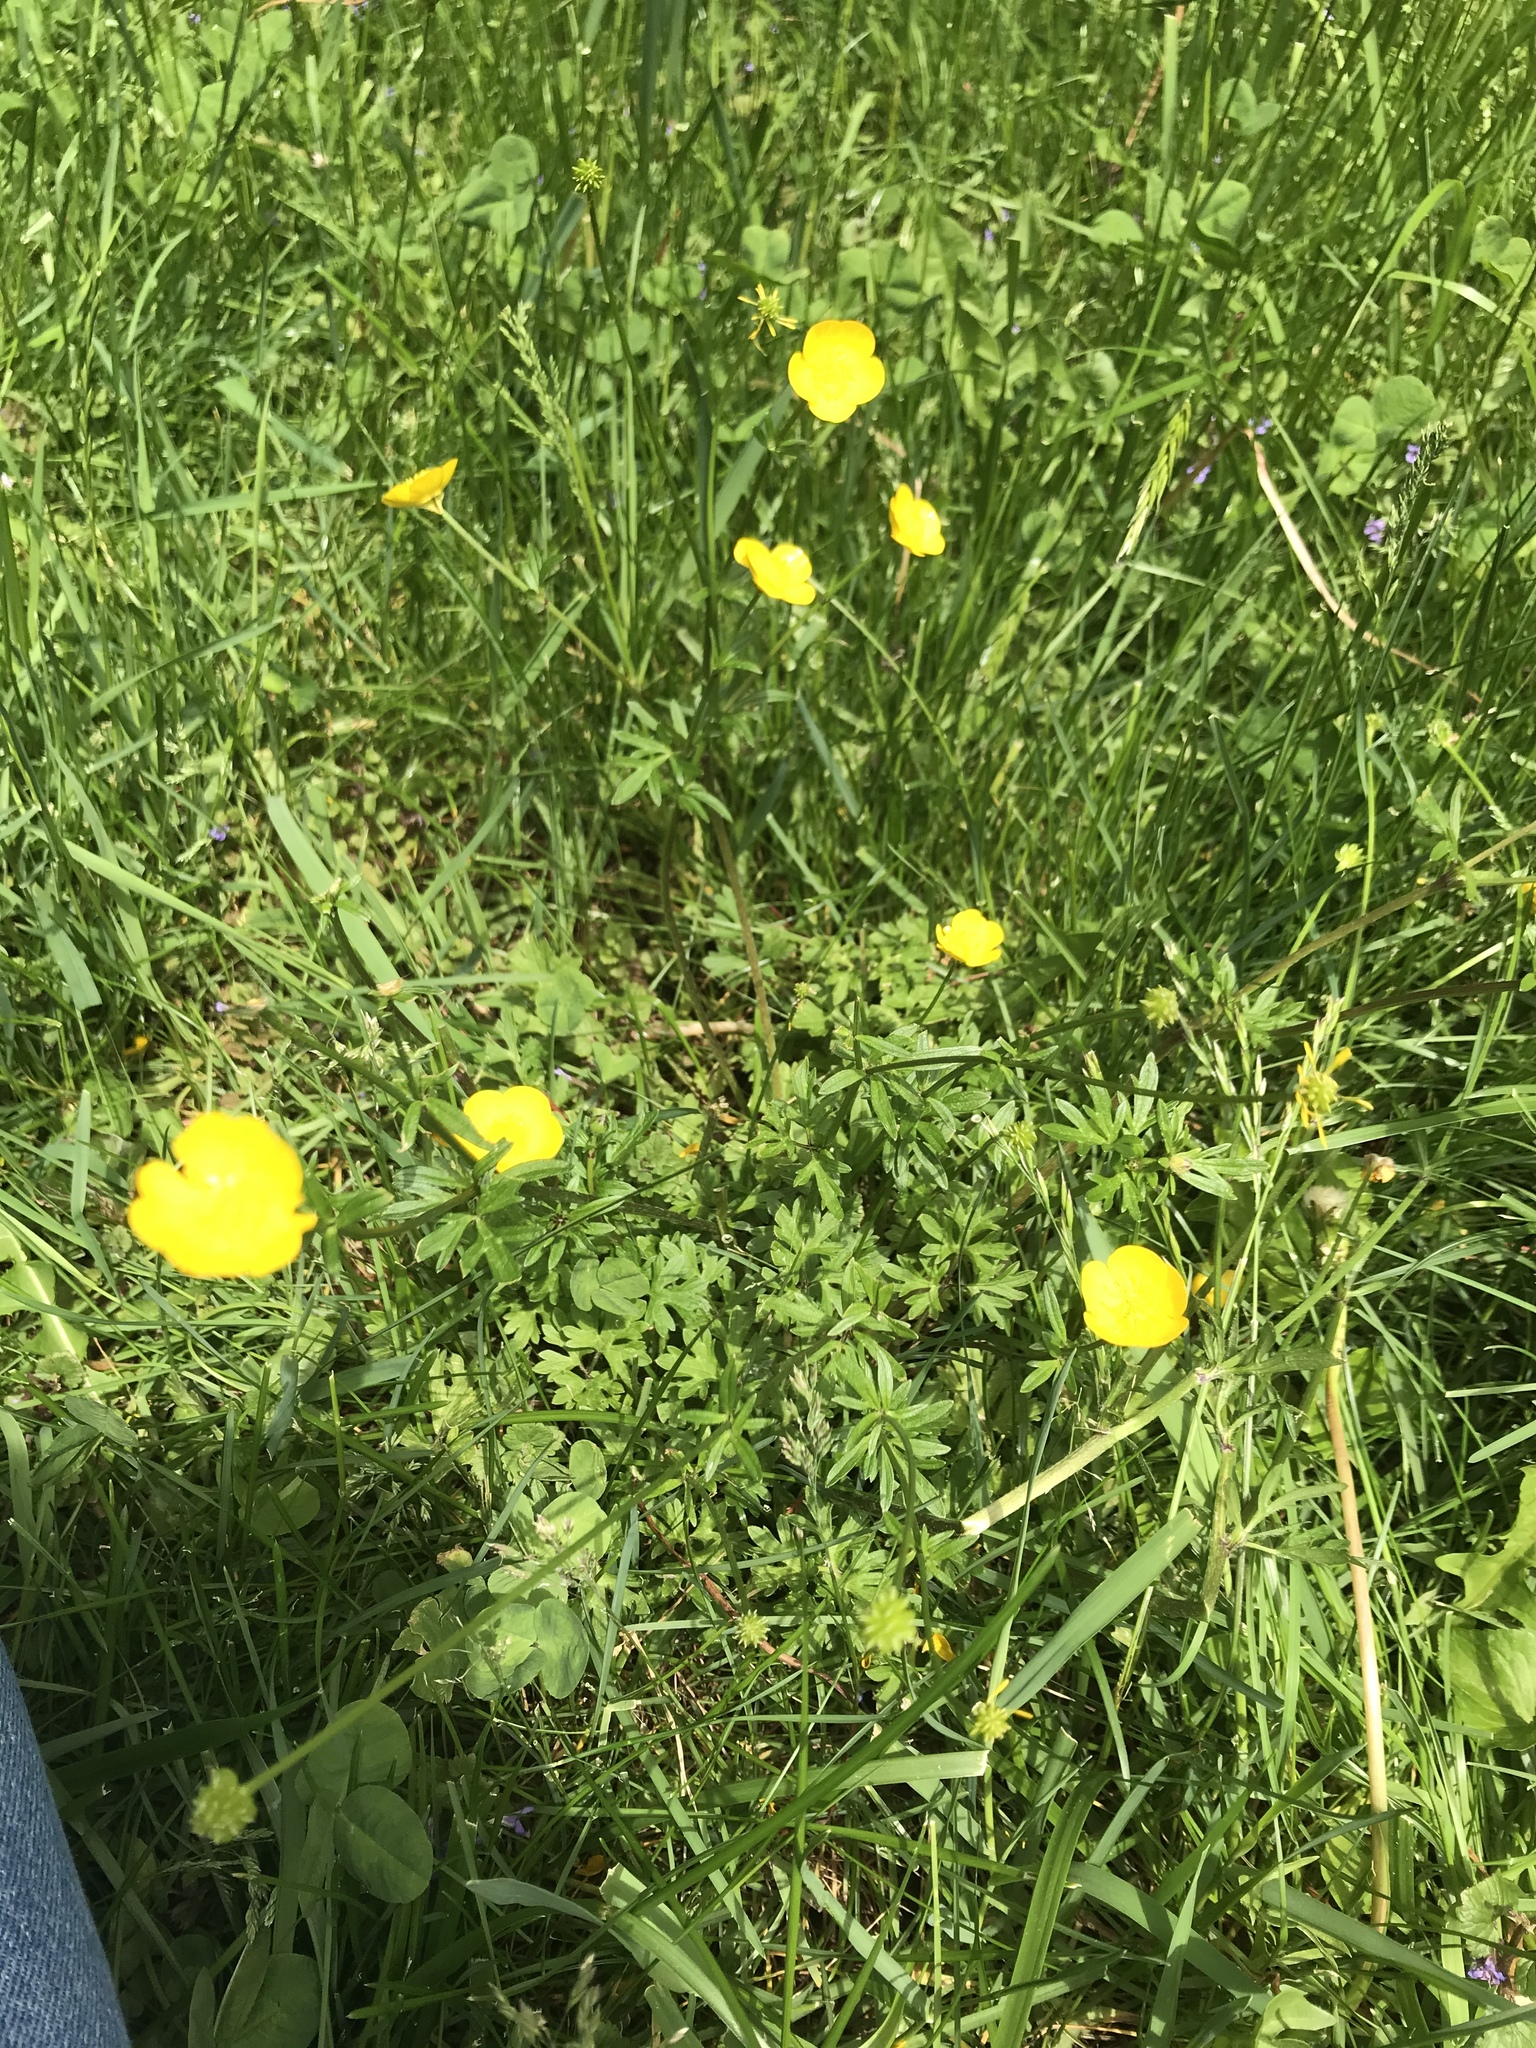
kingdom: Plantae
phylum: Tracheophyta
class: Magnoliopsida
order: Ranunculales
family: Ranunculaceae
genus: Ranunculus
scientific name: Ranunculus bulbosus
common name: Bulbous buttercup
